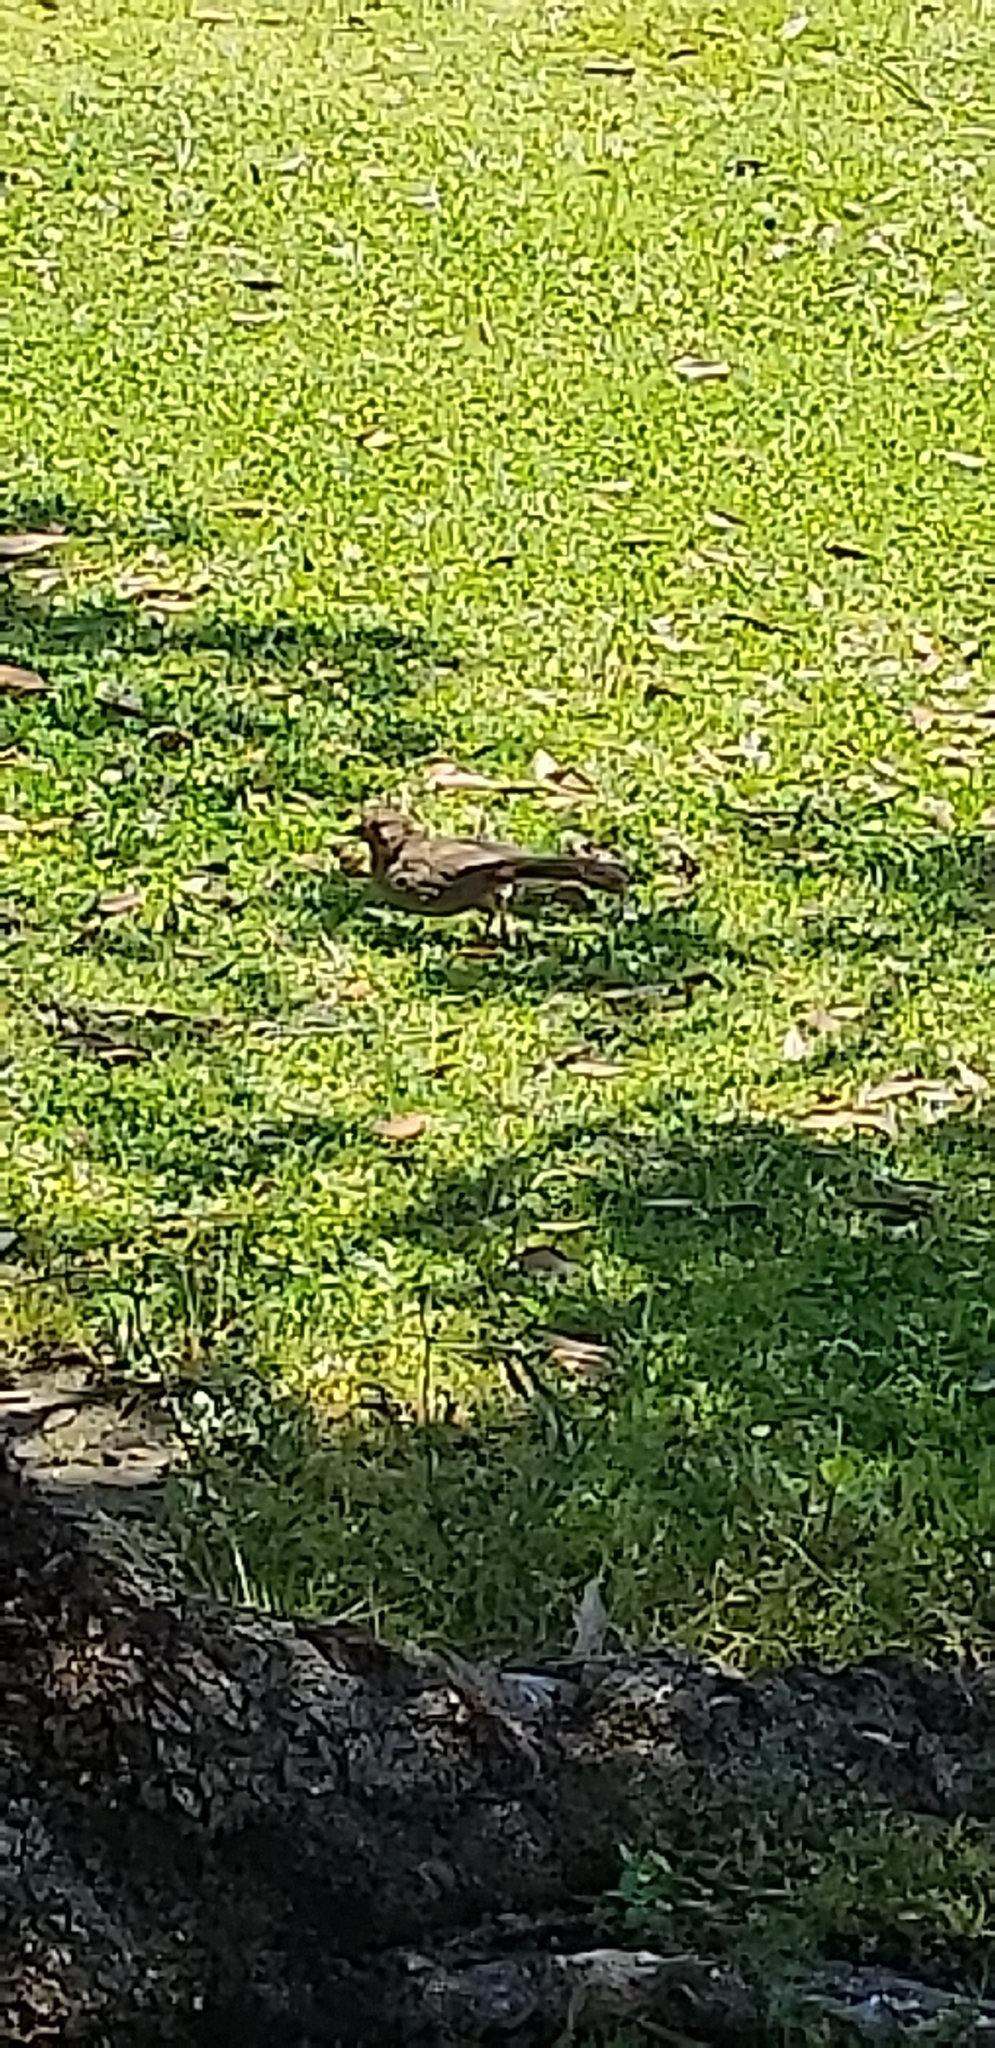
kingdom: Animalia
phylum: Chordata
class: Aves
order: Passeriformes
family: Passerellidae
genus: Melozone
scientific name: Melozone crissalis
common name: California towhee
